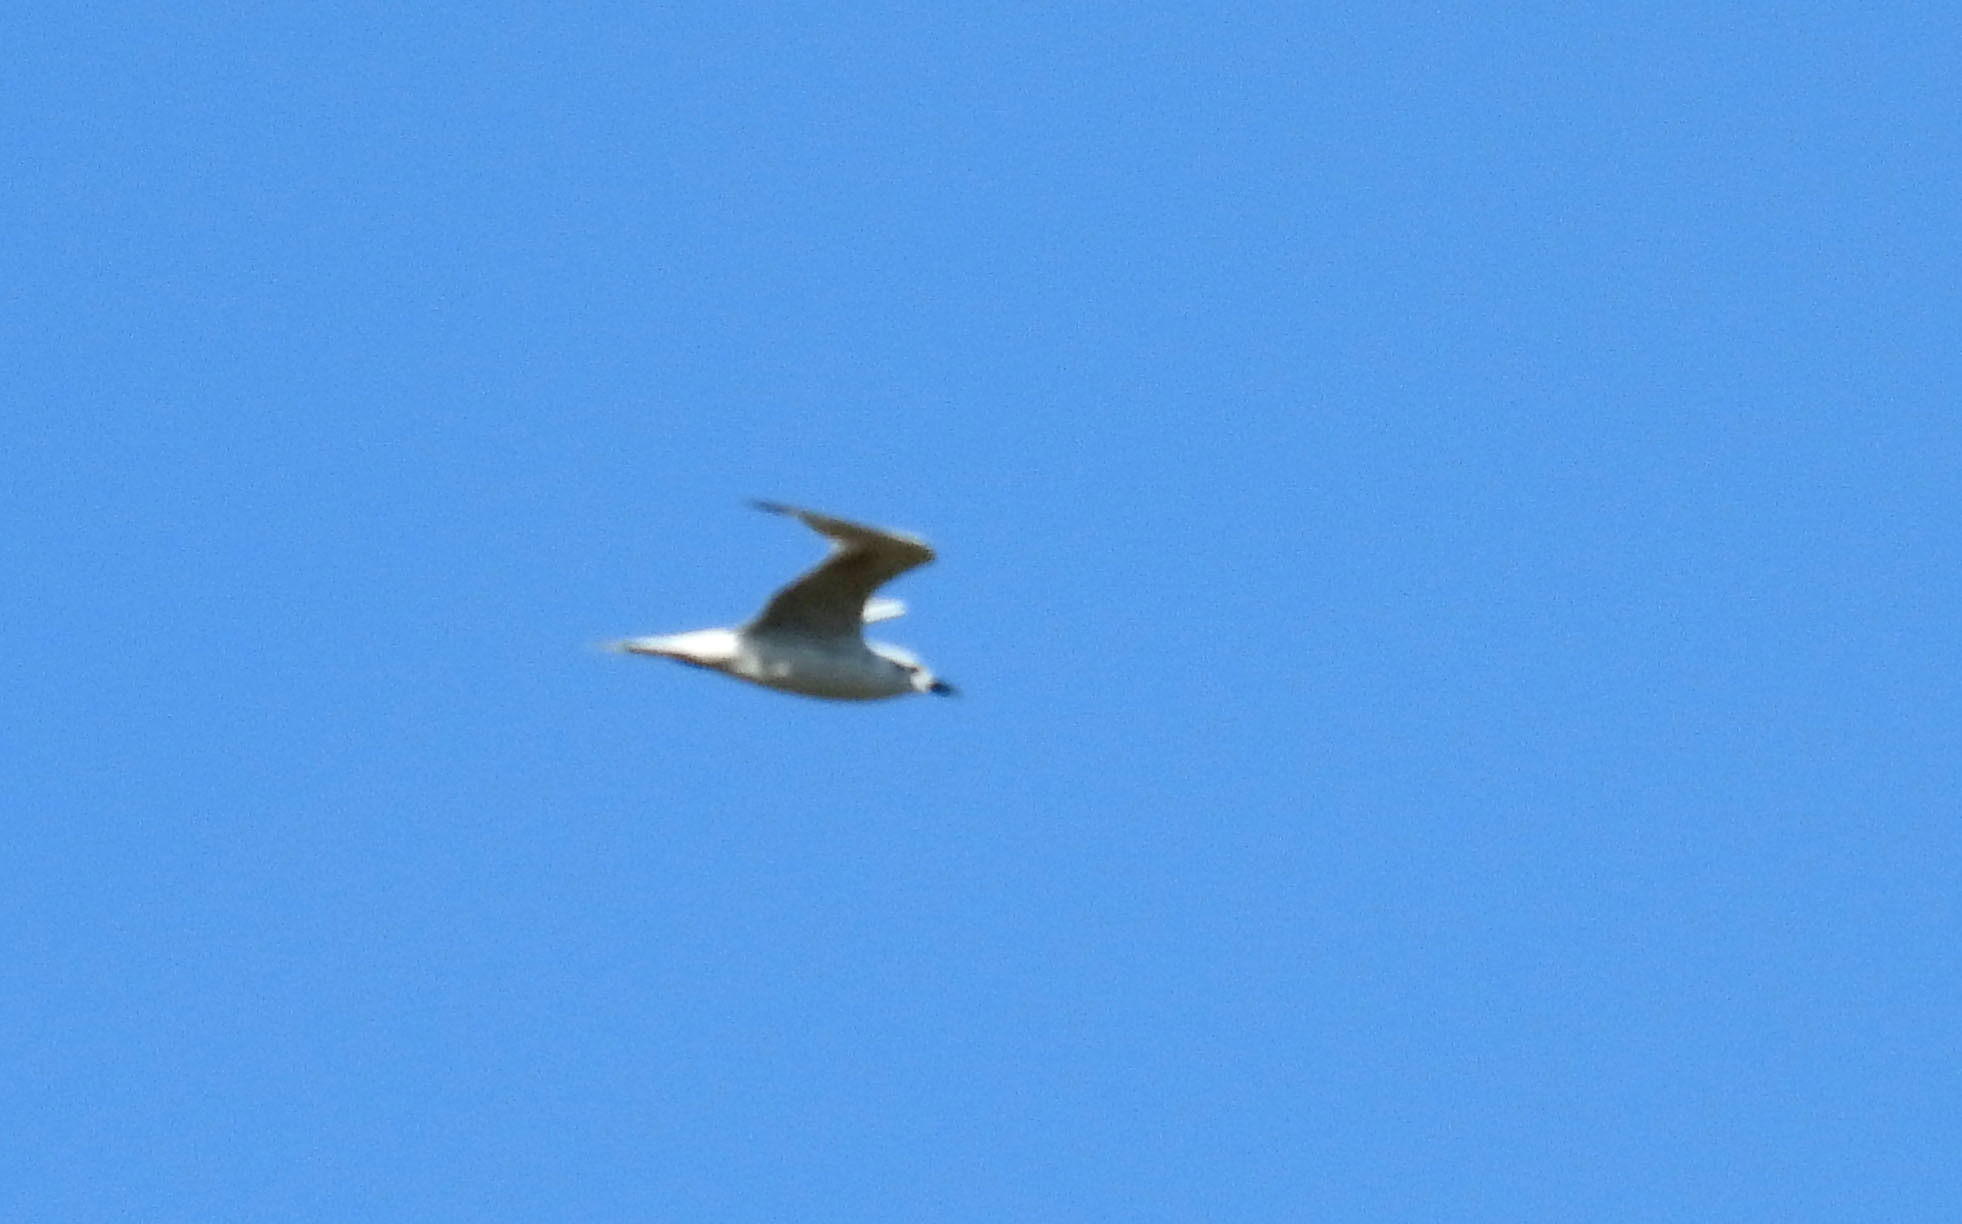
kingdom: Animalia
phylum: Chordata
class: Aves
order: Charadriiformes
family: Laridae
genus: Gelochelidon
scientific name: Gelochelidon nilotica
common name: Gull-billed tern
